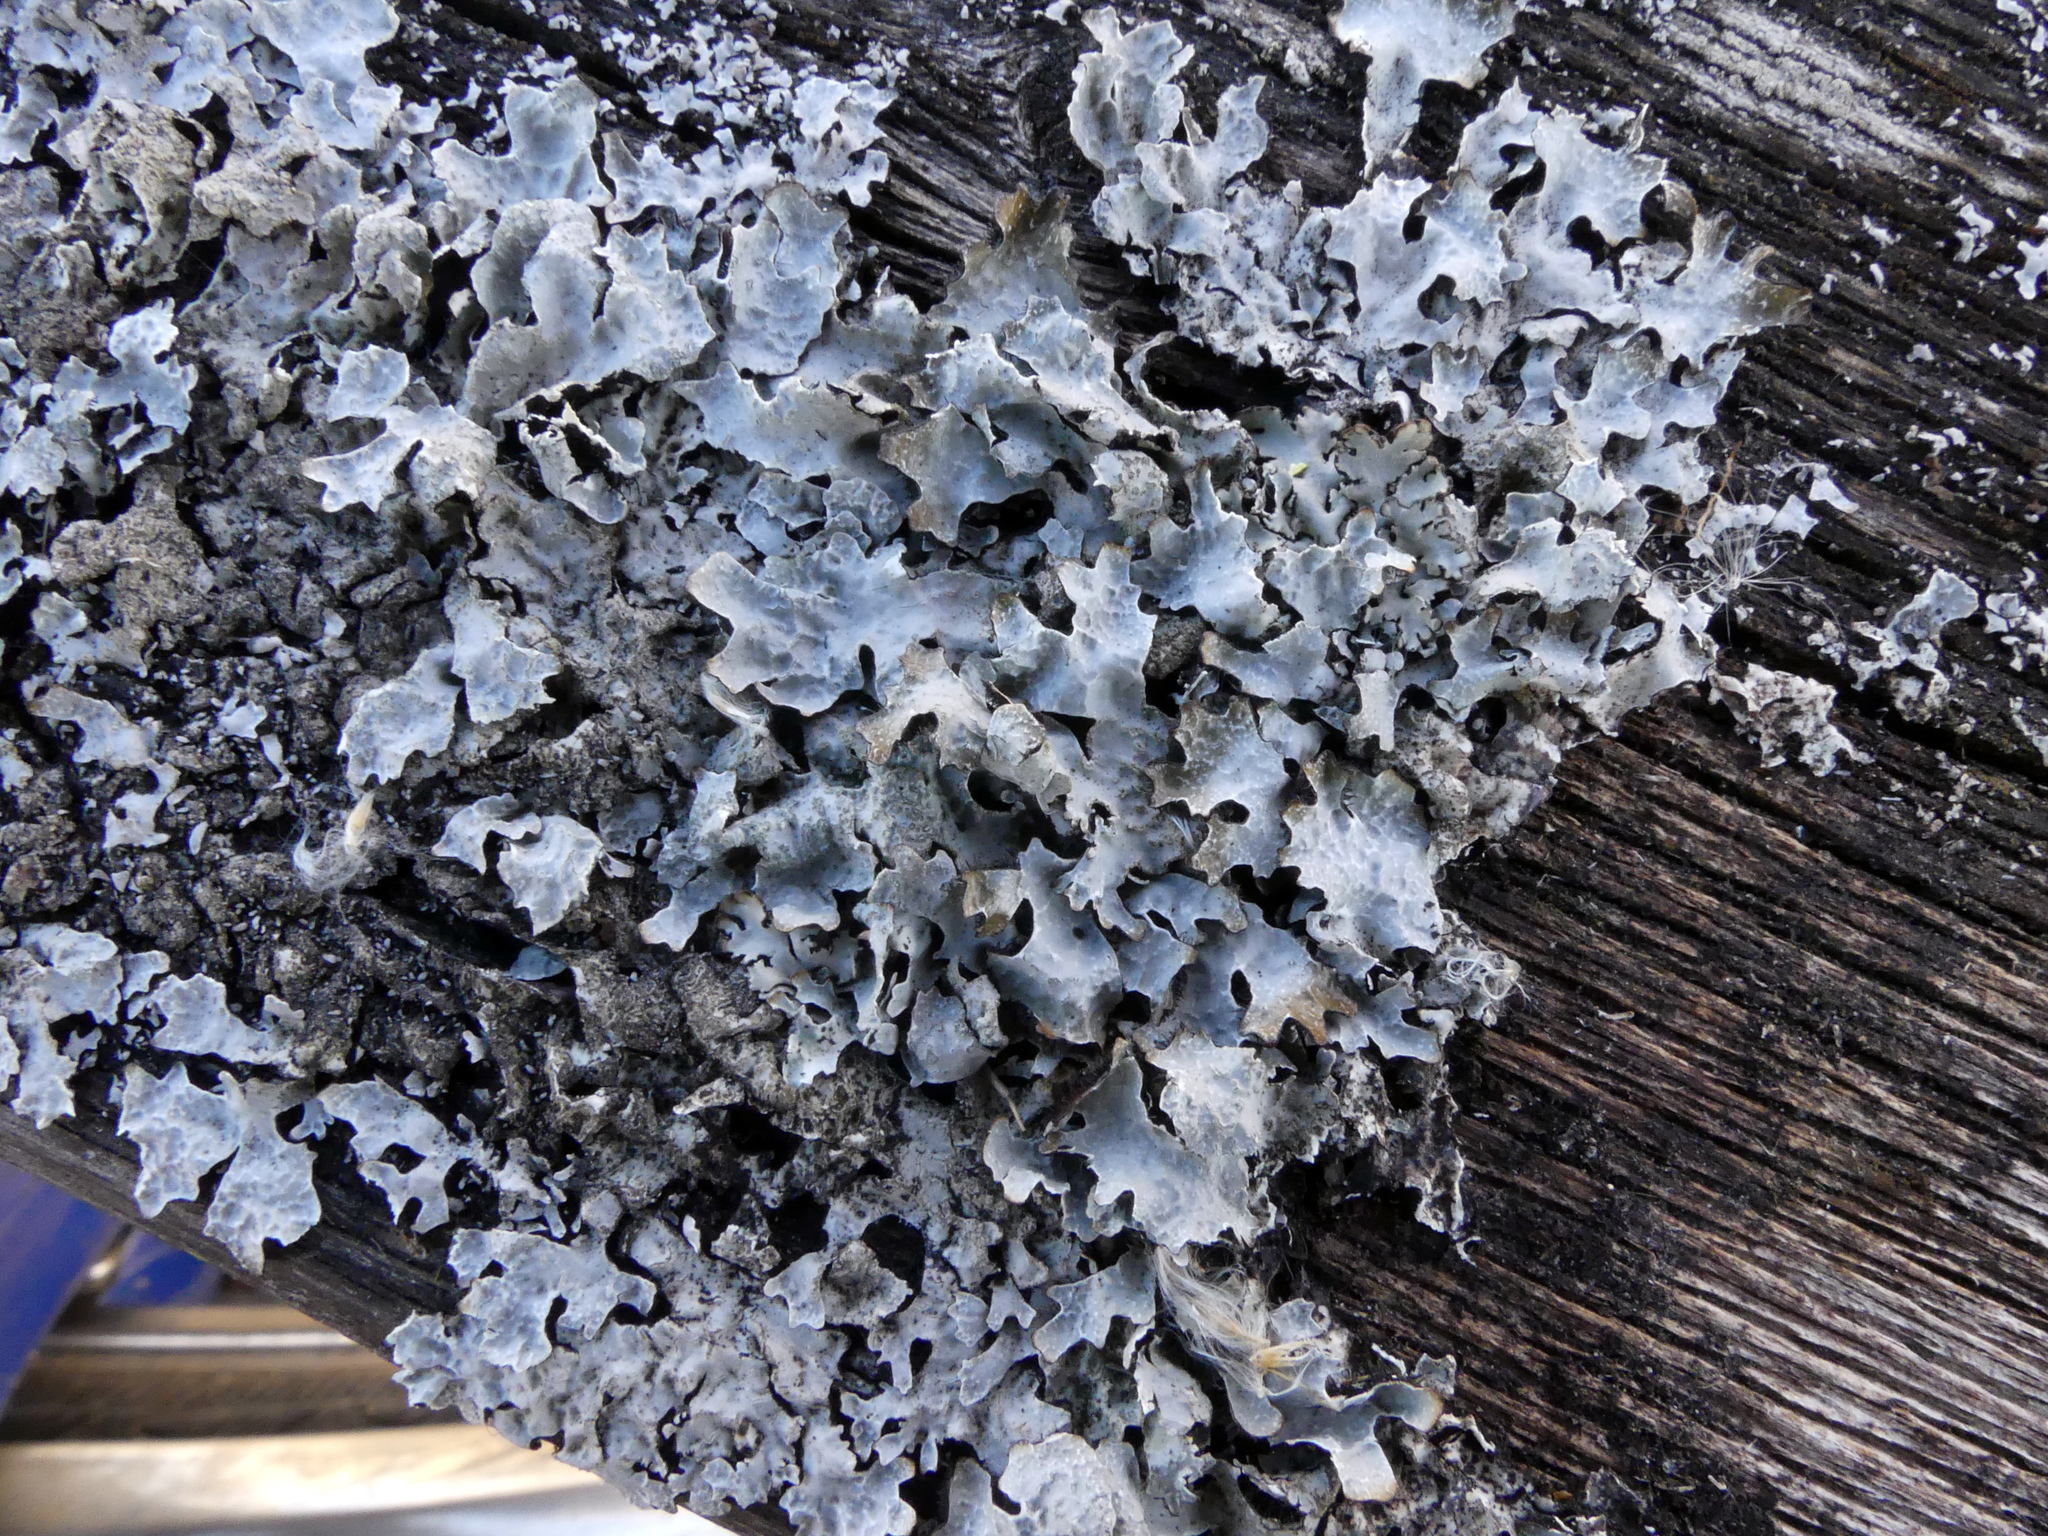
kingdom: Fungi
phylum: Ascomycota
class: Lecanoromycetes
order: Lecanorales
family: Parmeliaceae
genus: Parmelia
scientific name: Parmelia sulcata
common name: Netted shield lichen
